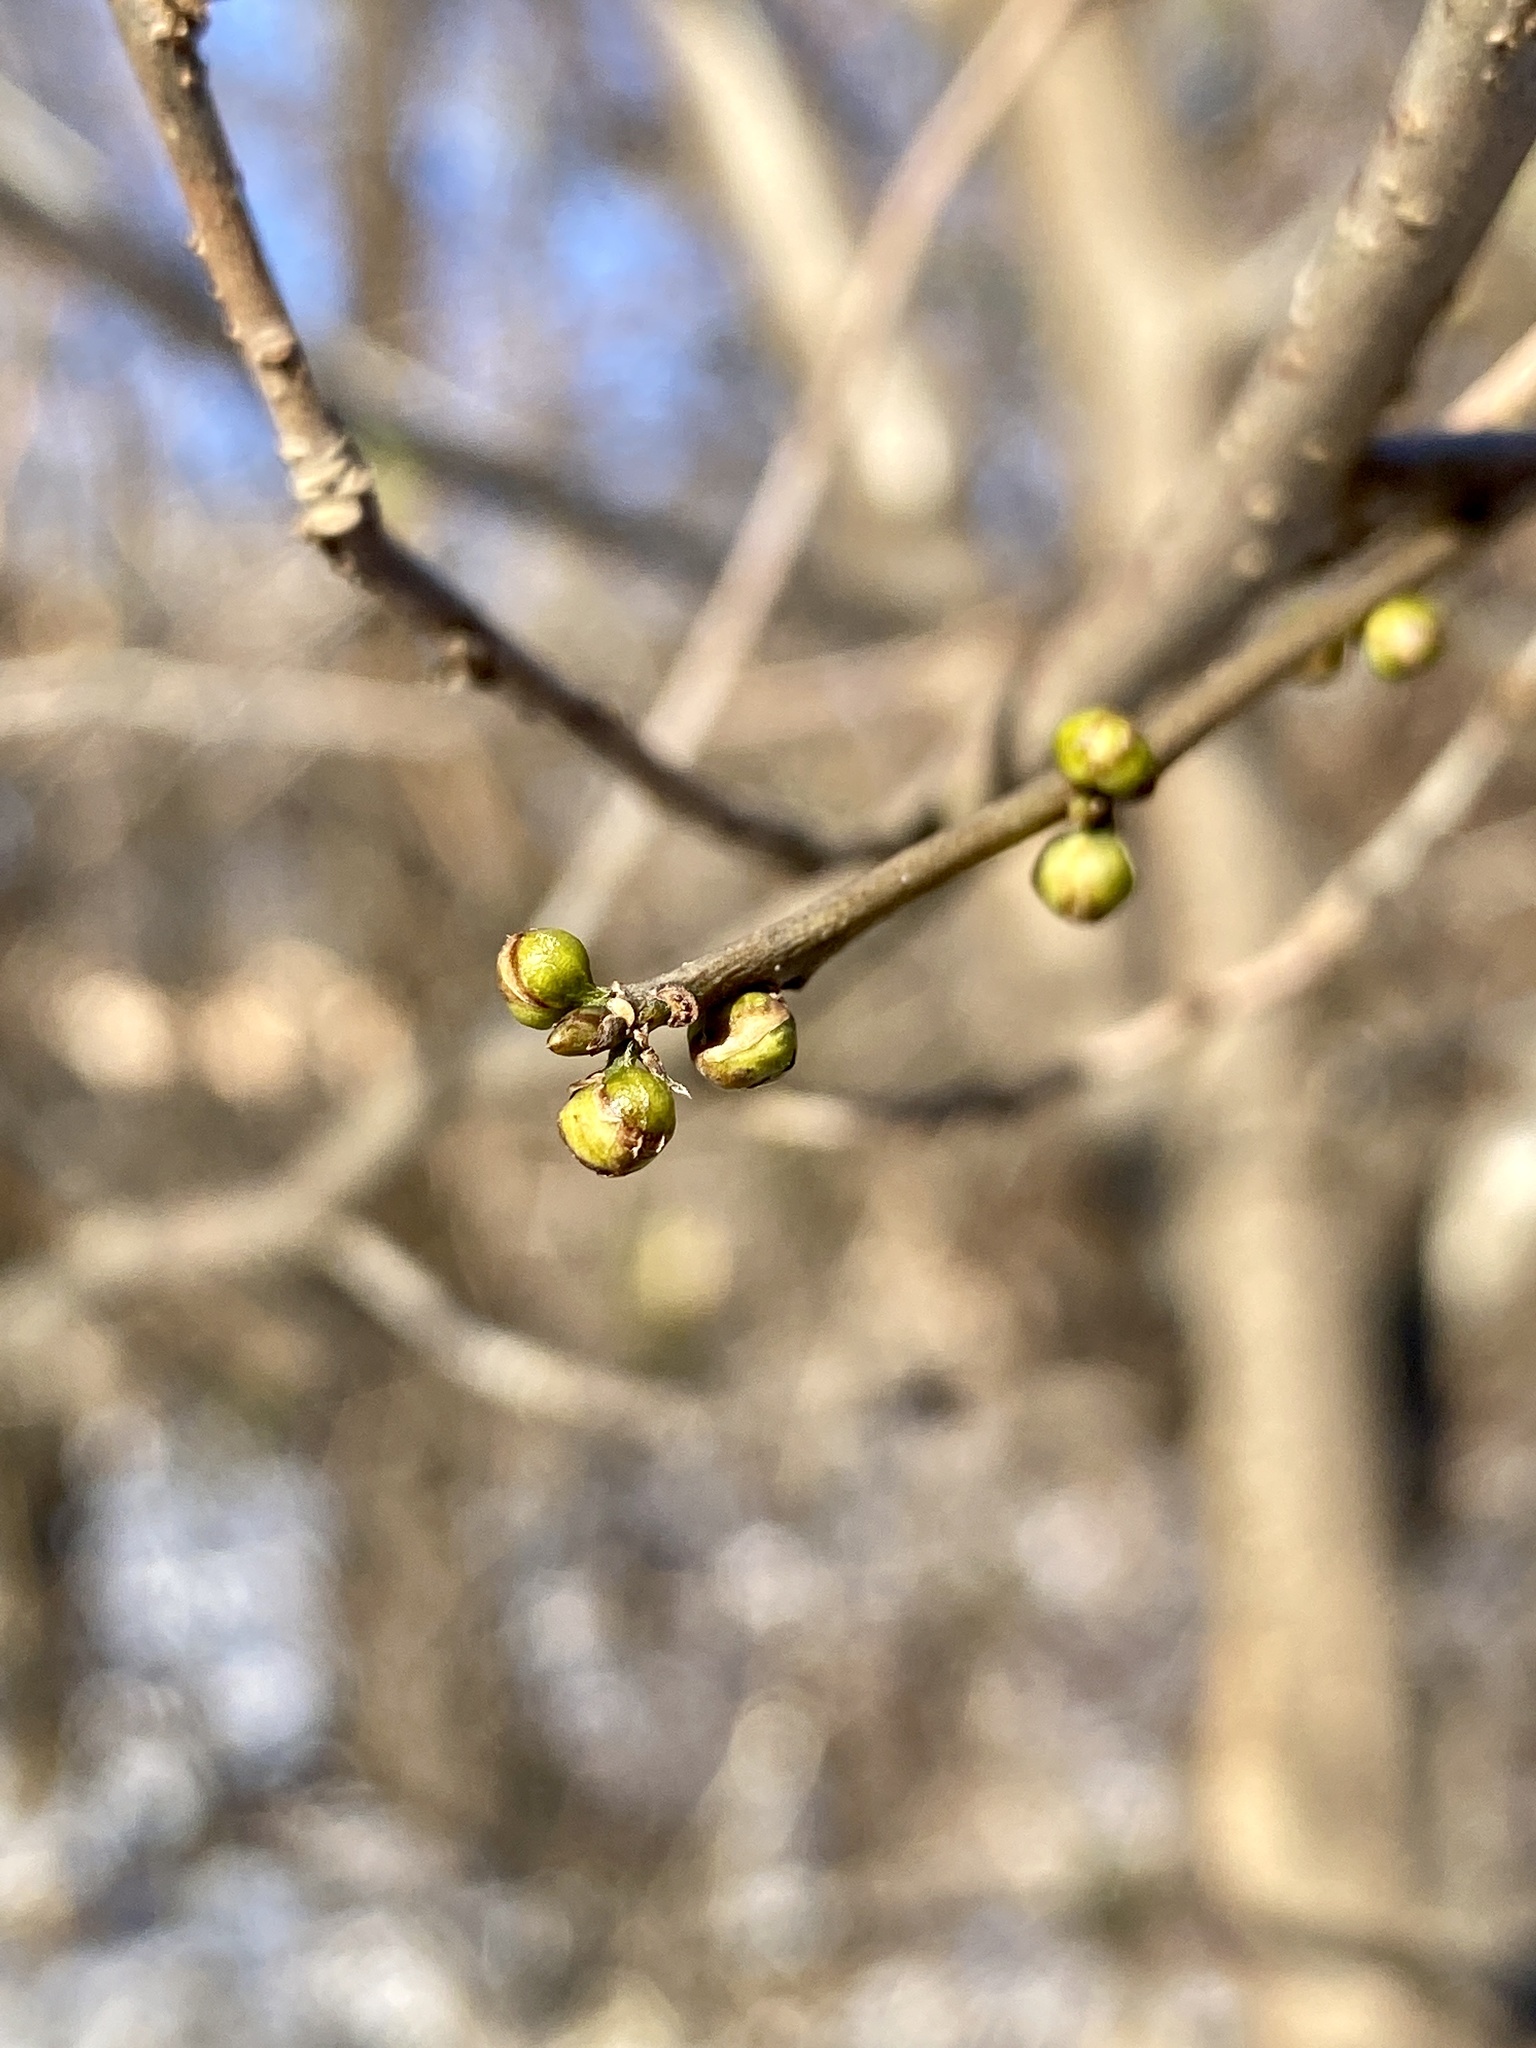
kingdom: Plantae
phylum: Tracheophyta
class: Magnoliopsida
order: Laurales
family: Lauraceae
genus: Lindera
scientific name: Lindera benzoin
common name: Spicebush
